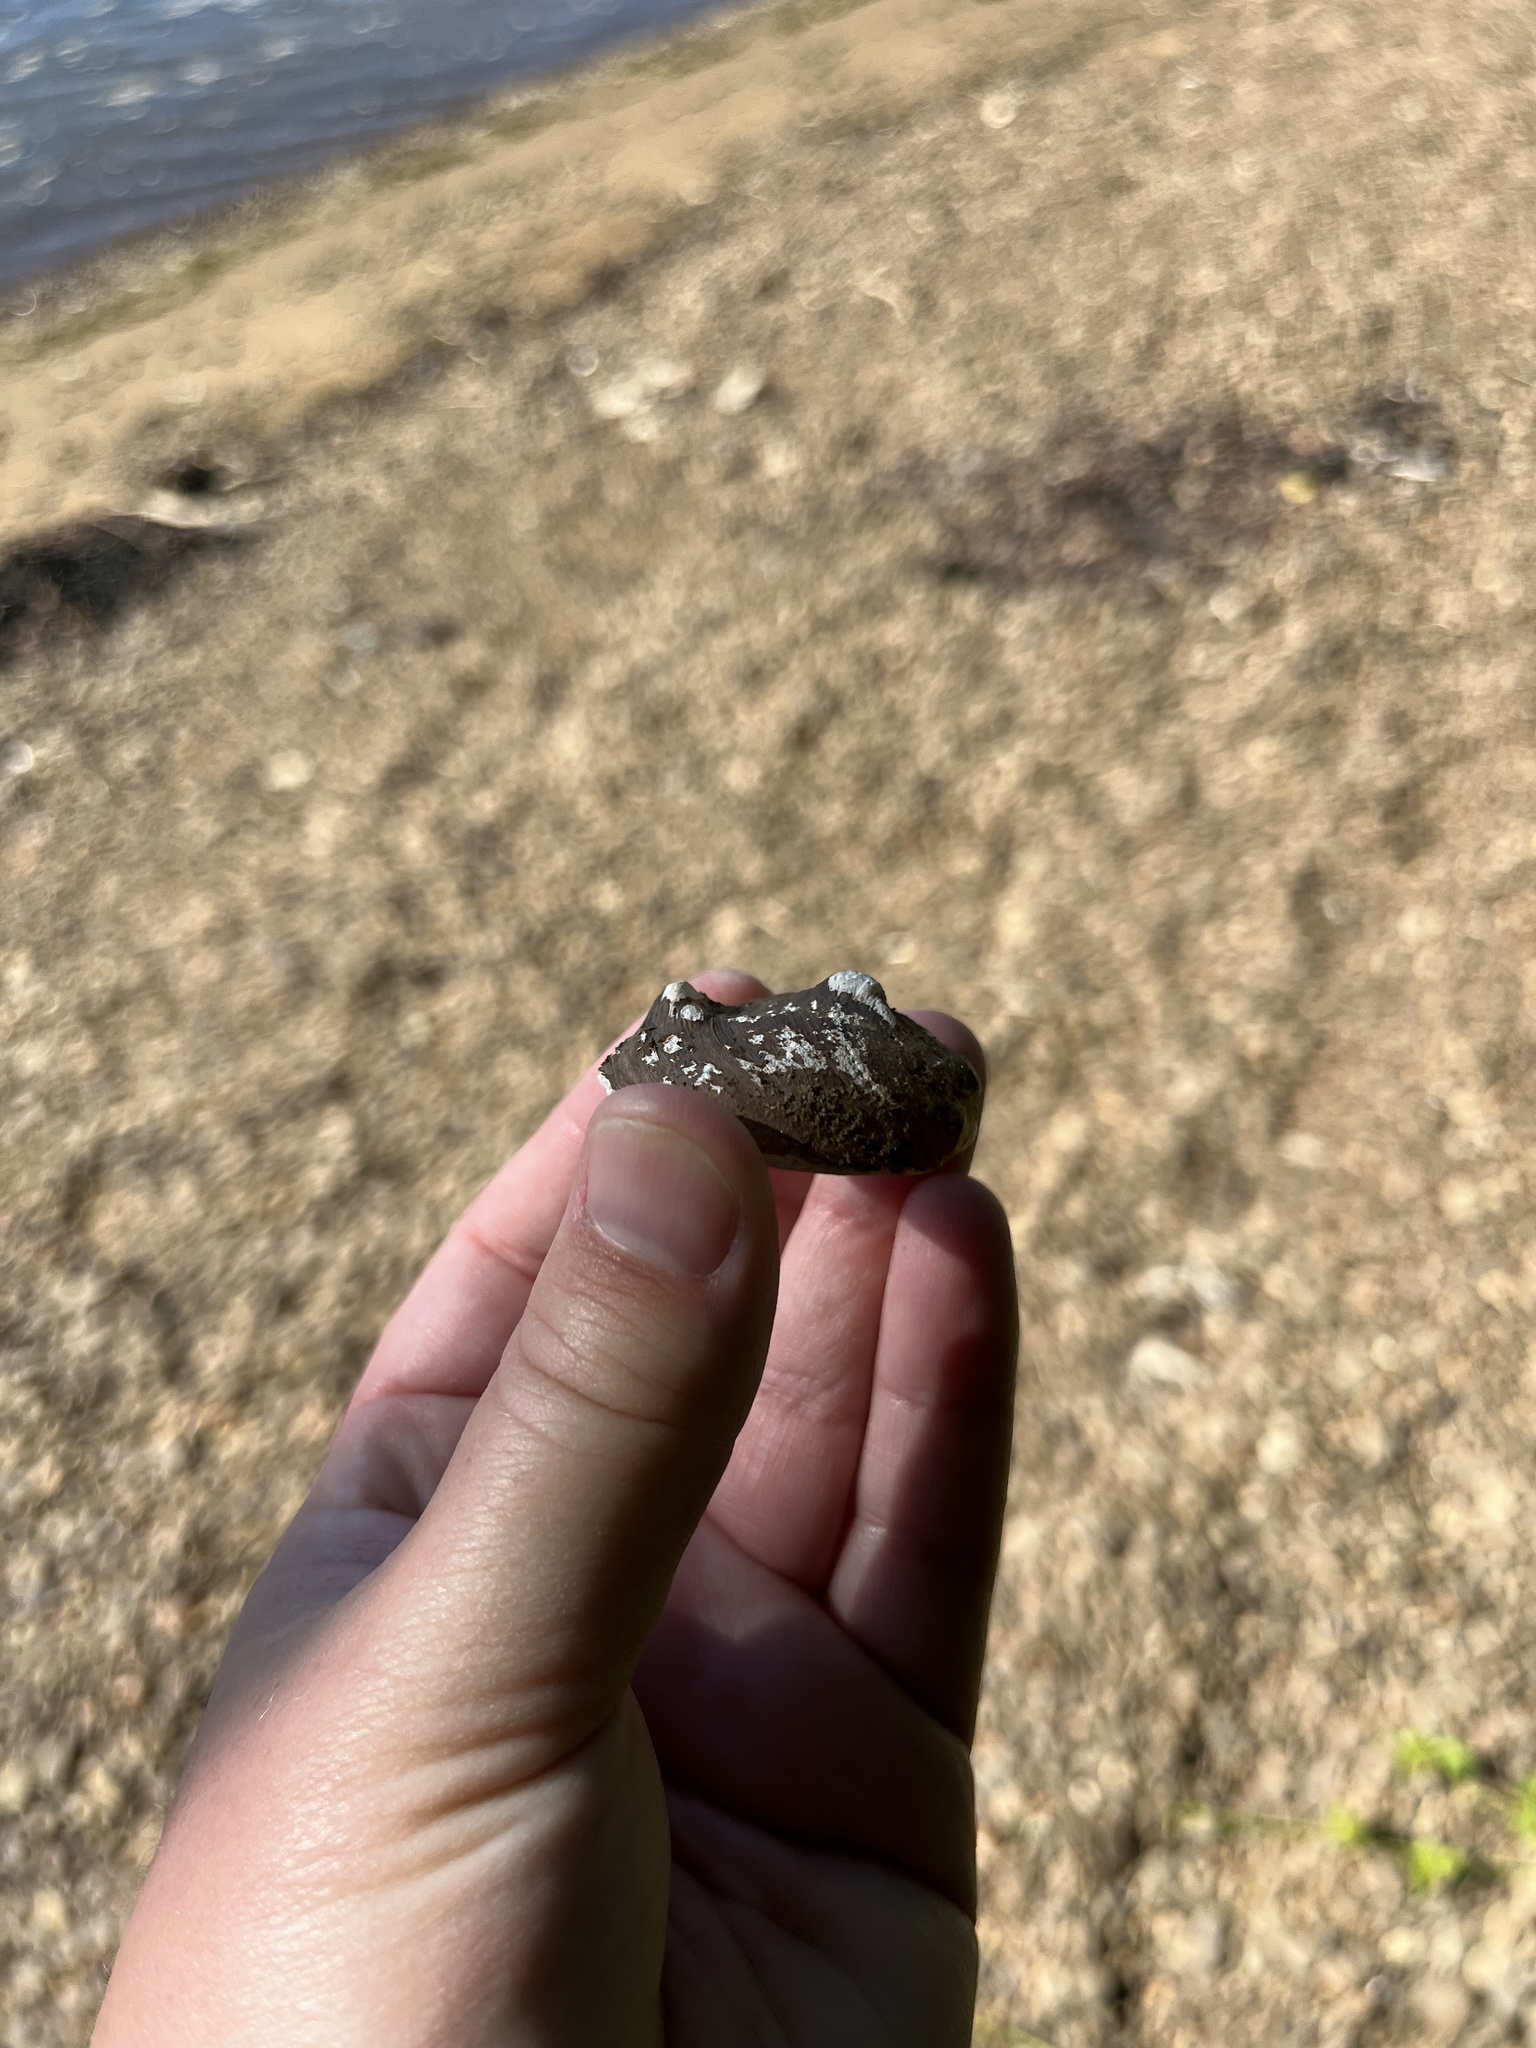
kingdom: Animalia
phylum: Mollusca
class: Bivalvia
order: Unionida
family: Unionidae
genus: Obliquaria
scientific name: Obliquaria reflexa
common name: Threehorn wartyback
